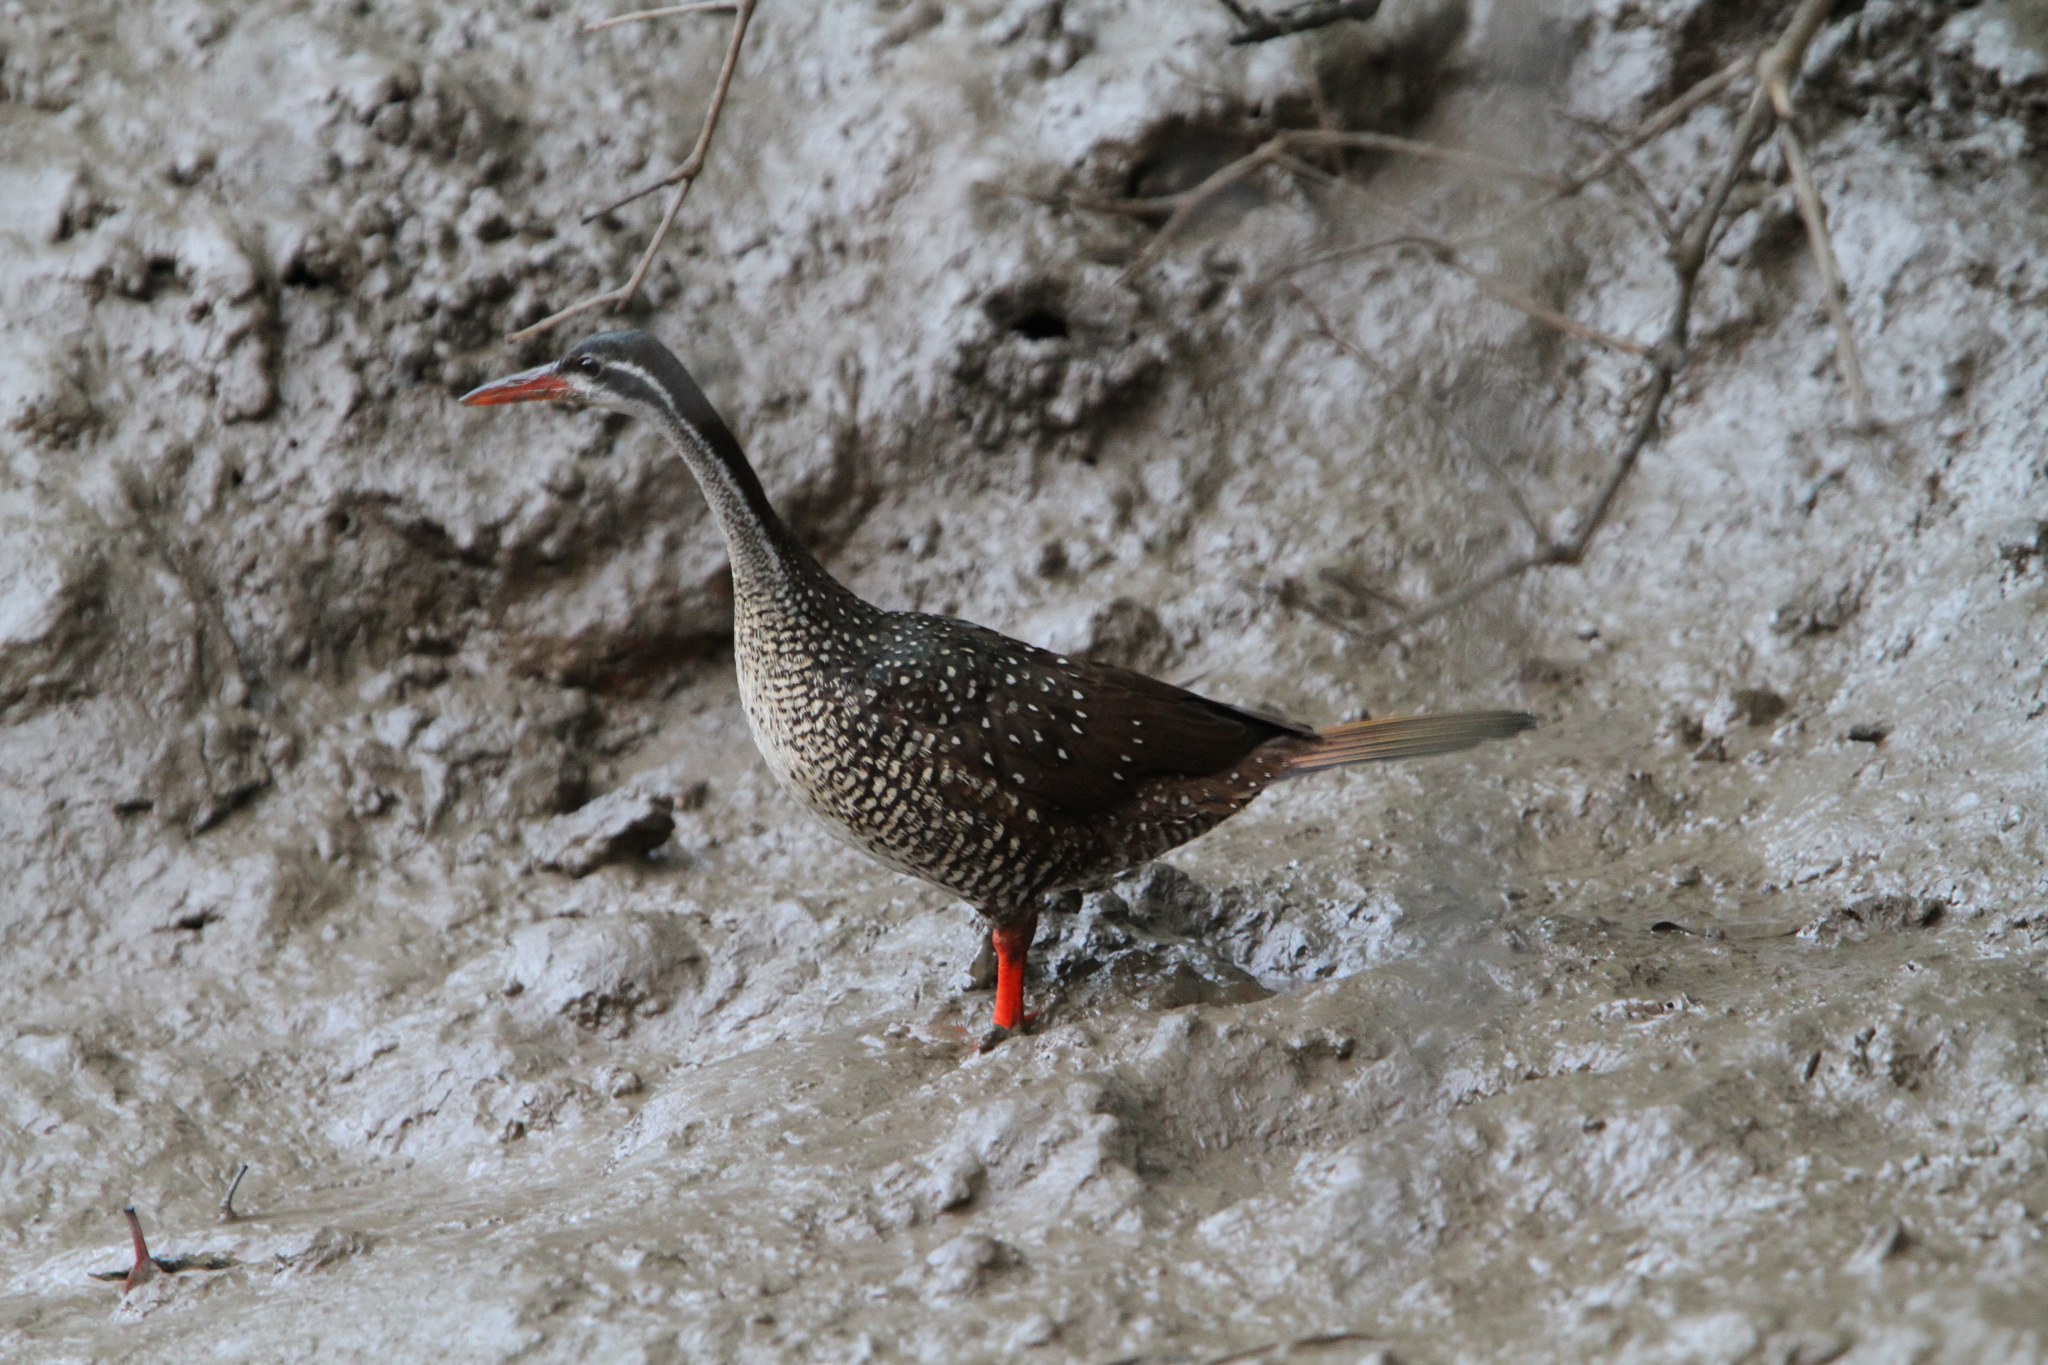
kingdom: Animalia
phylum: Chordata
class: Aves
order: Gruiformes
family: Heliornithidae
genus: Podica
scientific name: Podica senegalensis
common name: African finfoot
